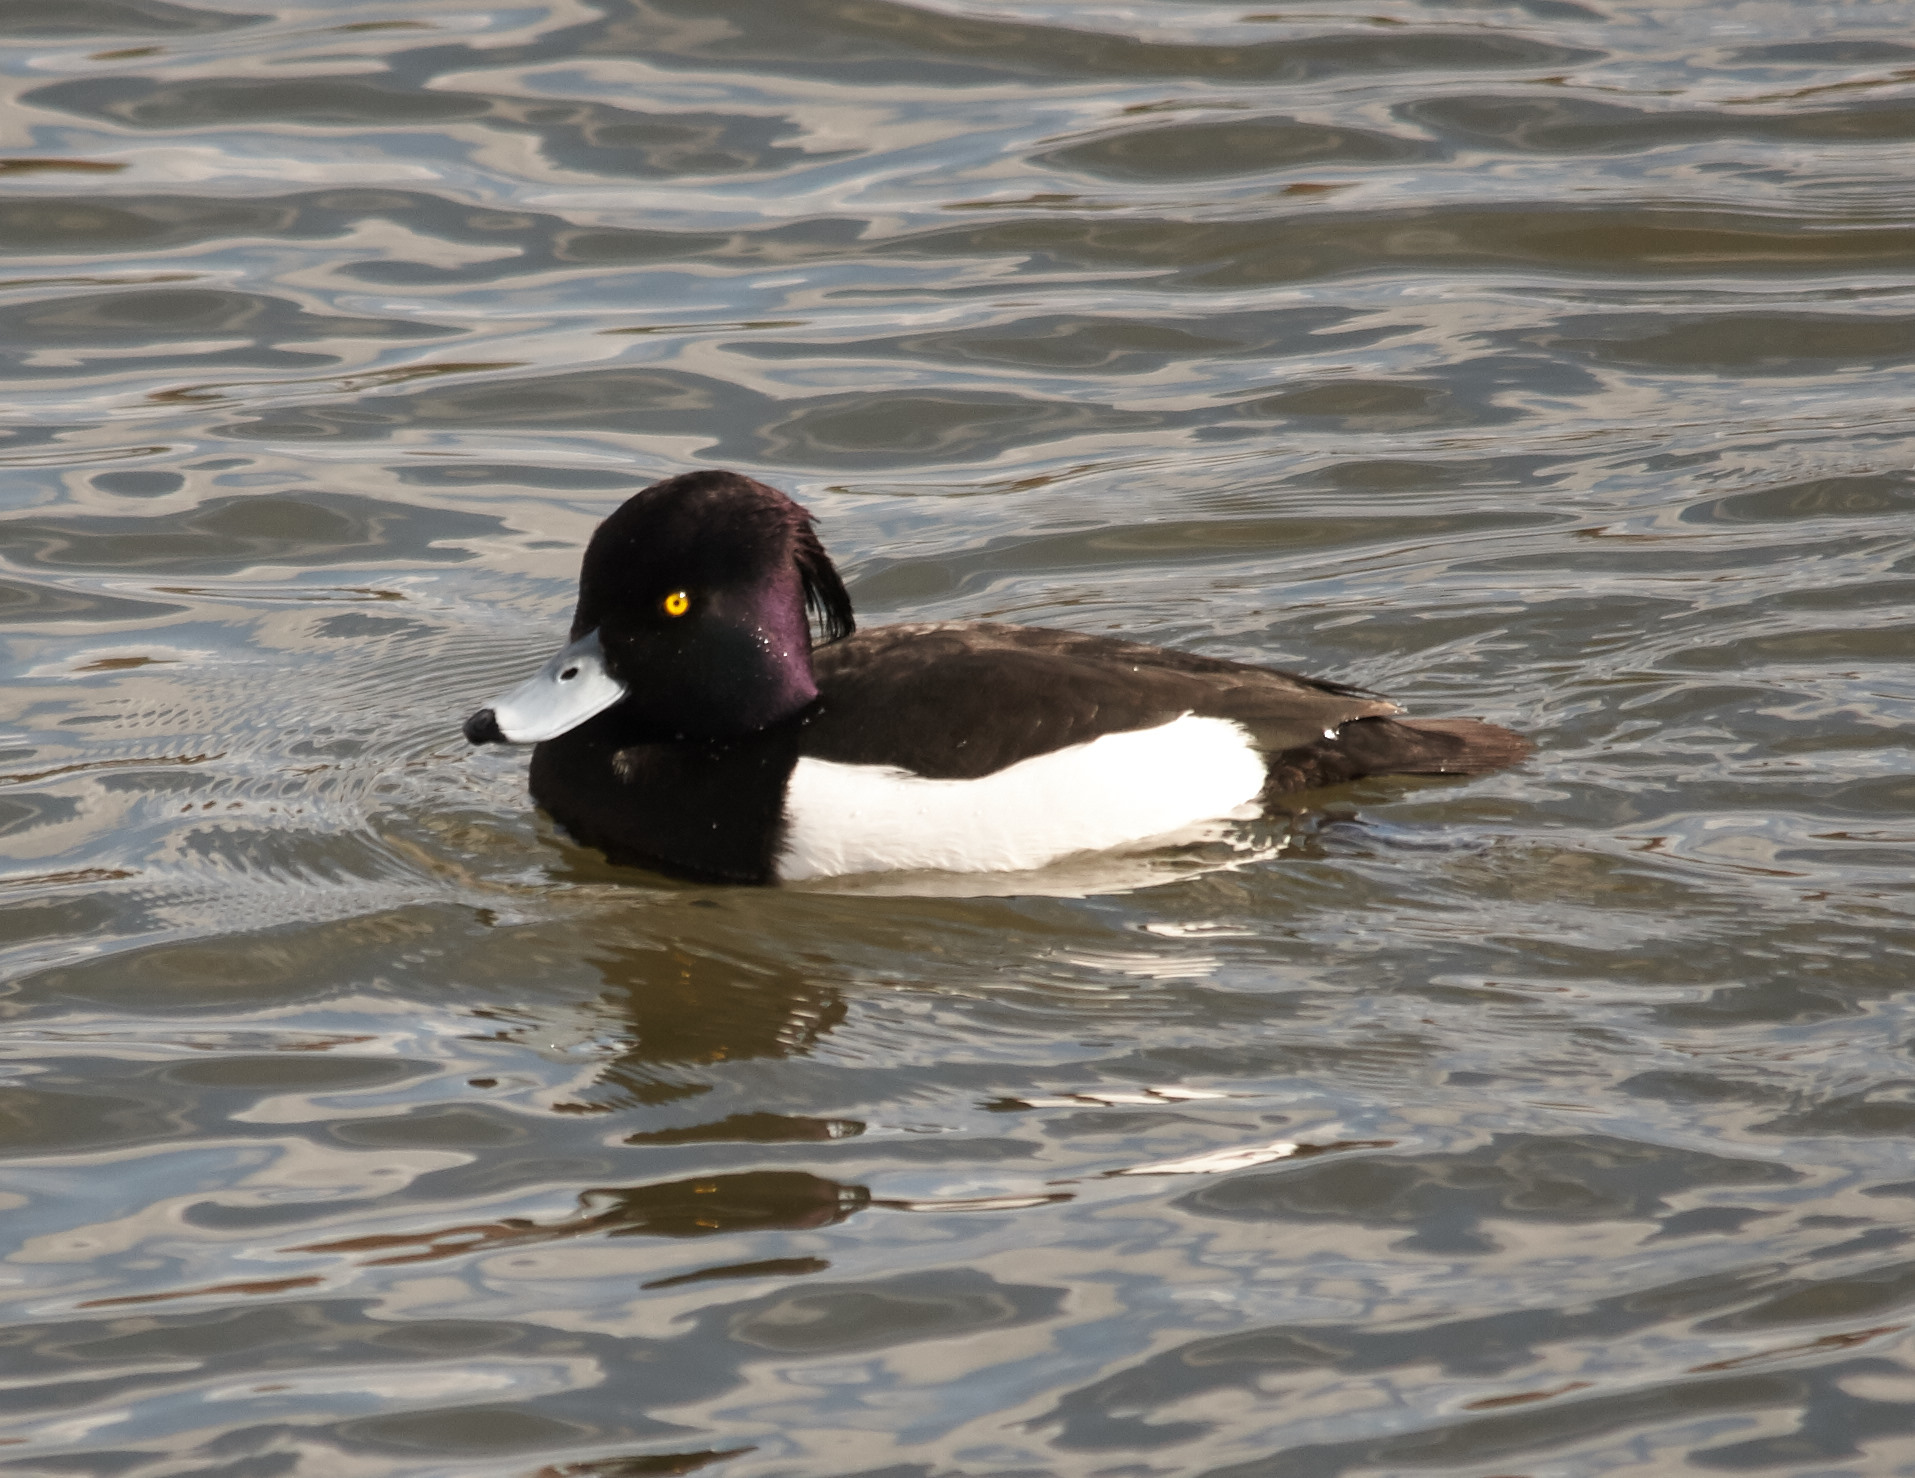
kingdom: Animalia
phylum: Chordata
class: Aves
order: Anseriformes
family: Anatidae
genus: Aythya
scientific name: Aythya fuligula
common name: Tufted duck
